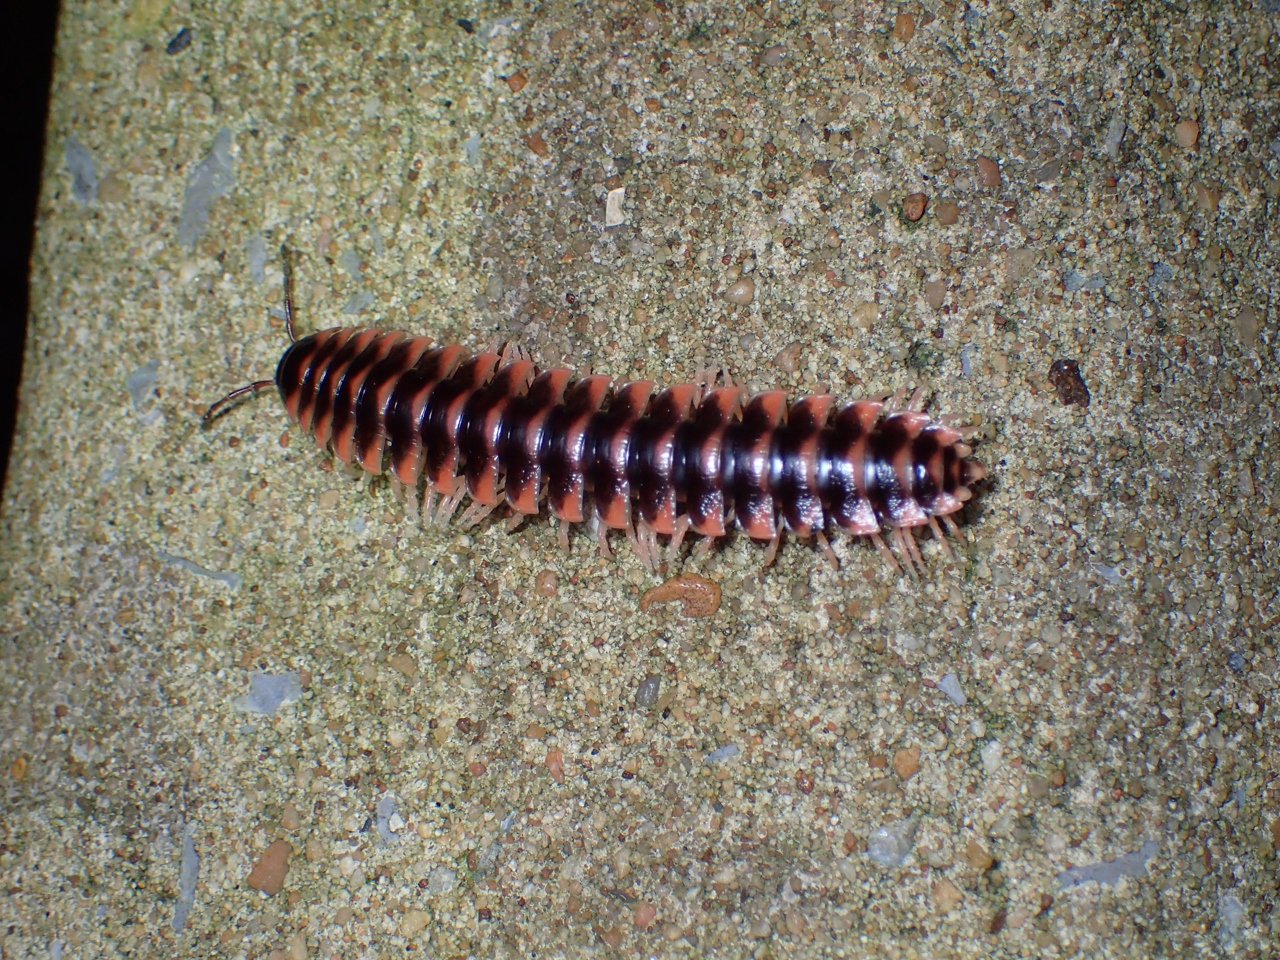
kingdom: Animalia
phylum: Arthropoda
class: Diplopoda
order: Polydesmida
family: Xystodesmidae
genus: Cherokia
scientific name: Cherokia georgiana
